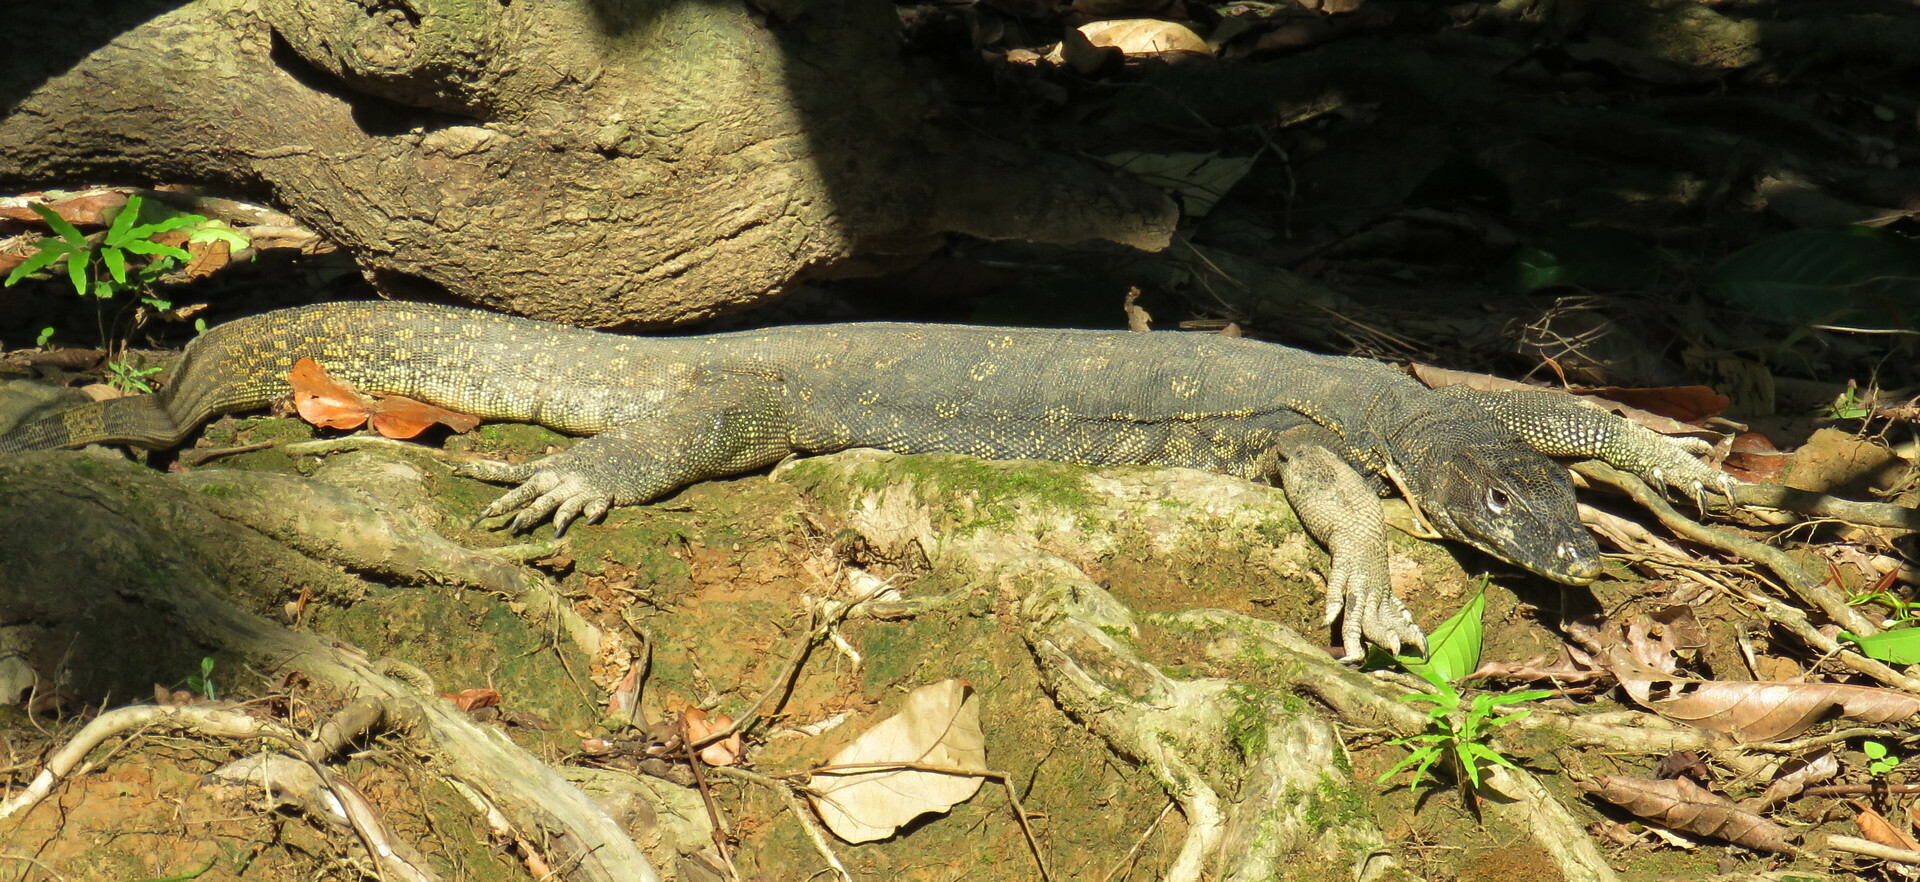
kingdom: Animalia
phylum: Chordata
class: Squamata
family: Varanidae
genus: Varanus
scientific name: Varanus salvator
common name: Common water monitor
